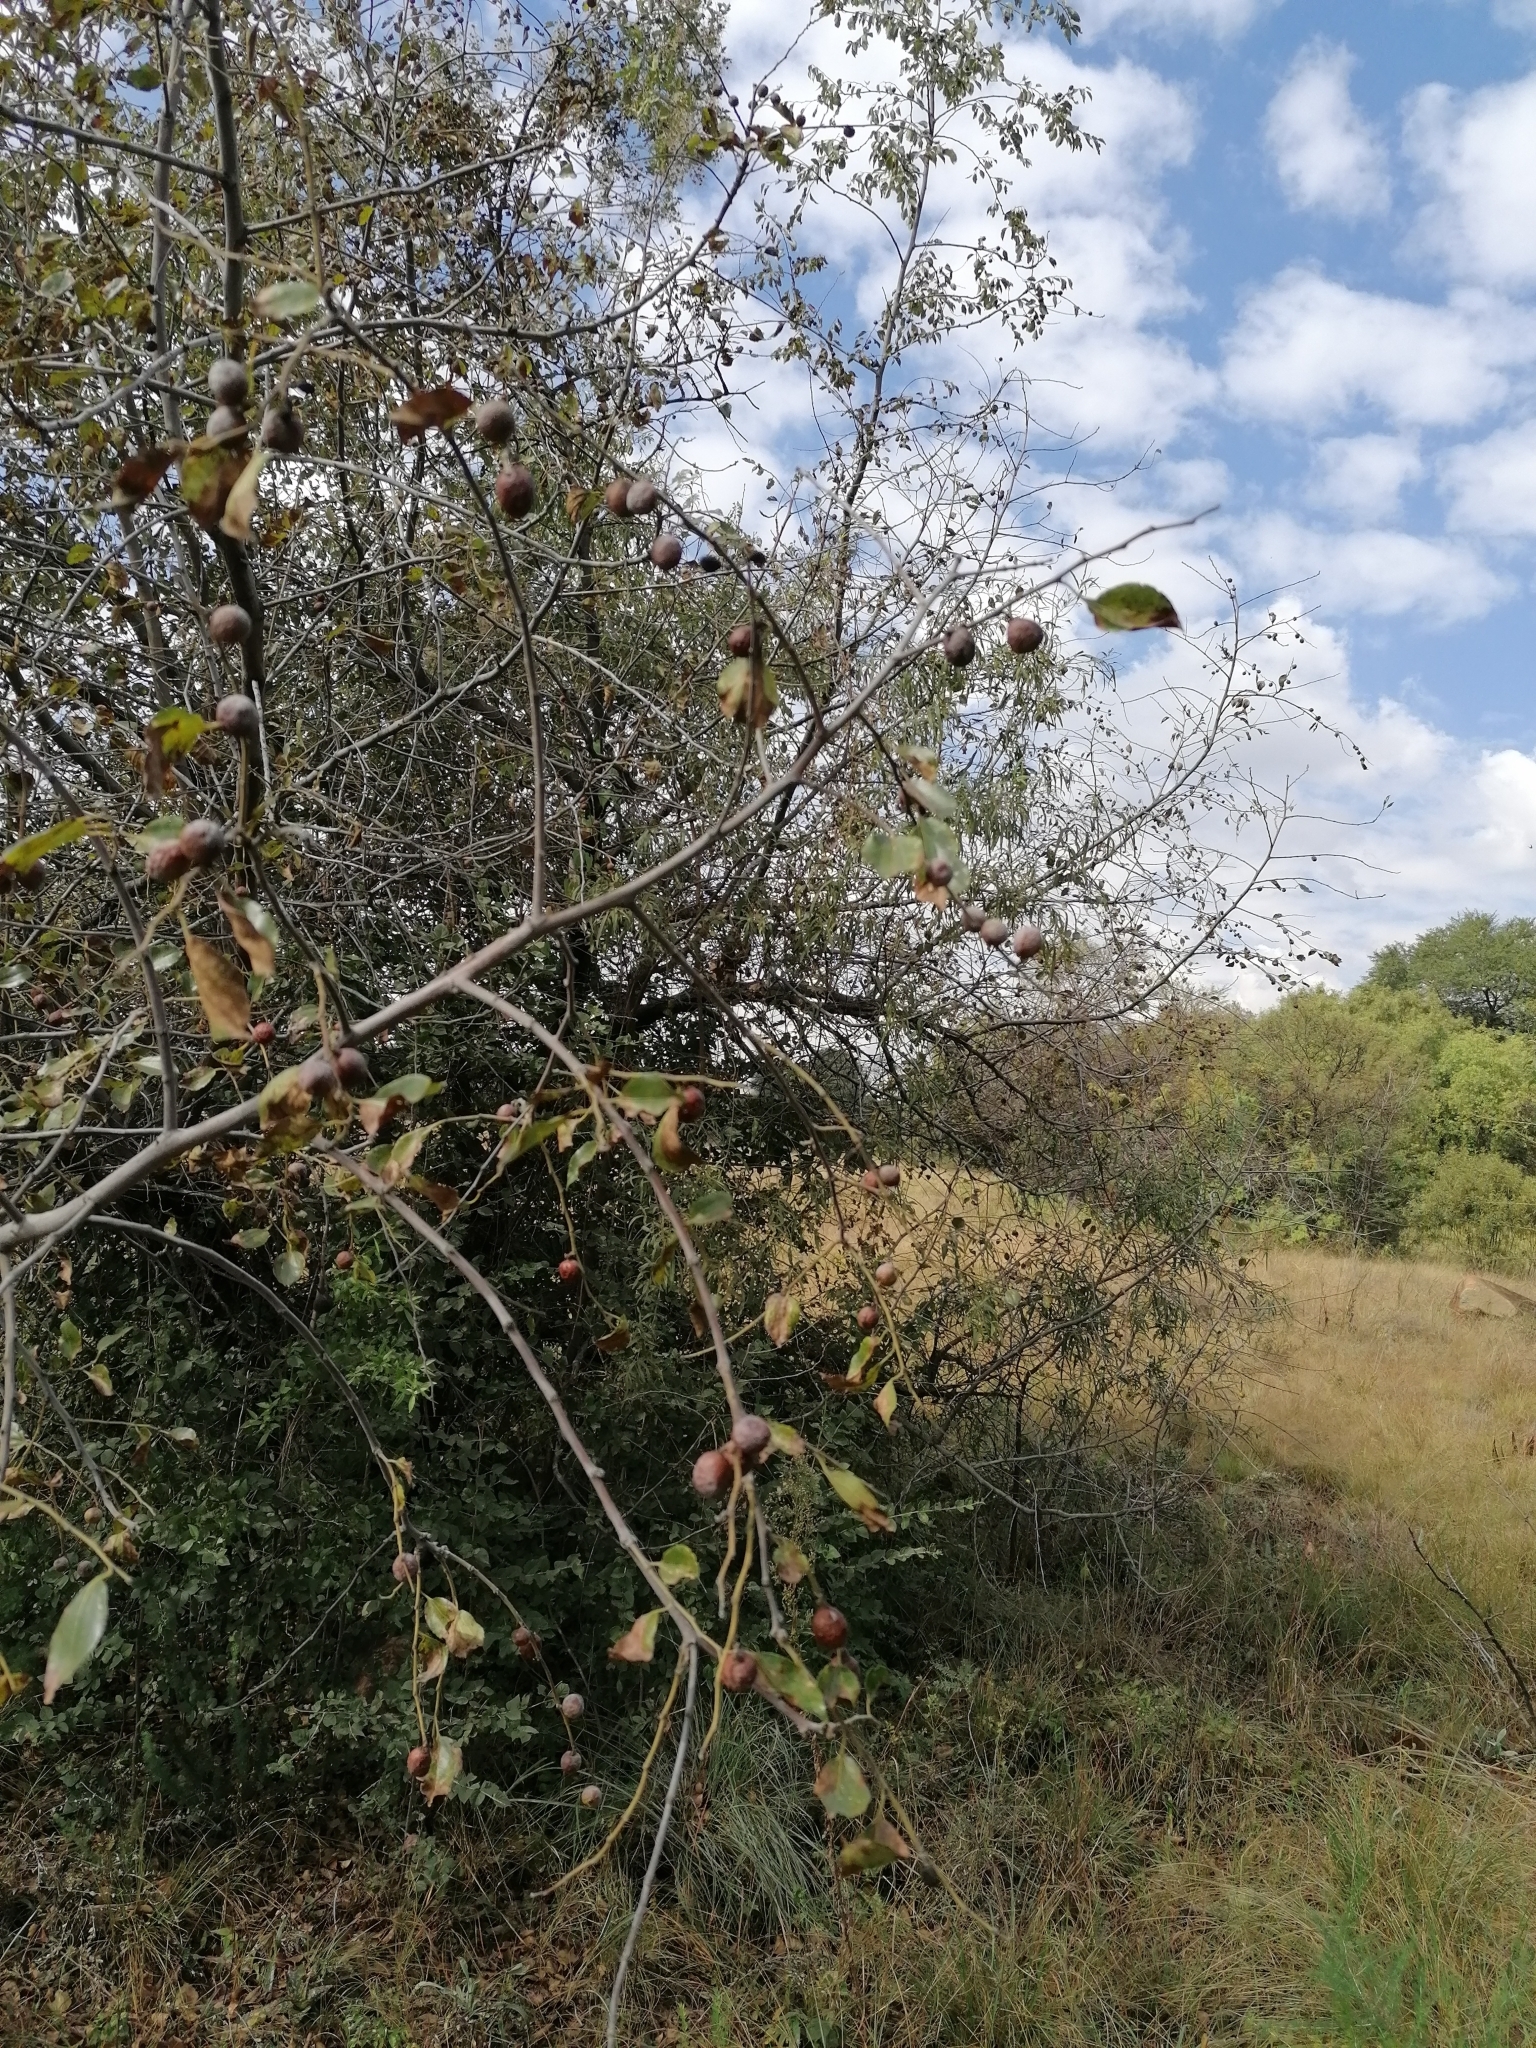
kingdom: Plantae
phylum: Tracheophyta
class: Magnoliopsida
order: Rosales
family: Rhamnaceae
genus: Ziziphus
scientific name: Ziziphus mucronata
